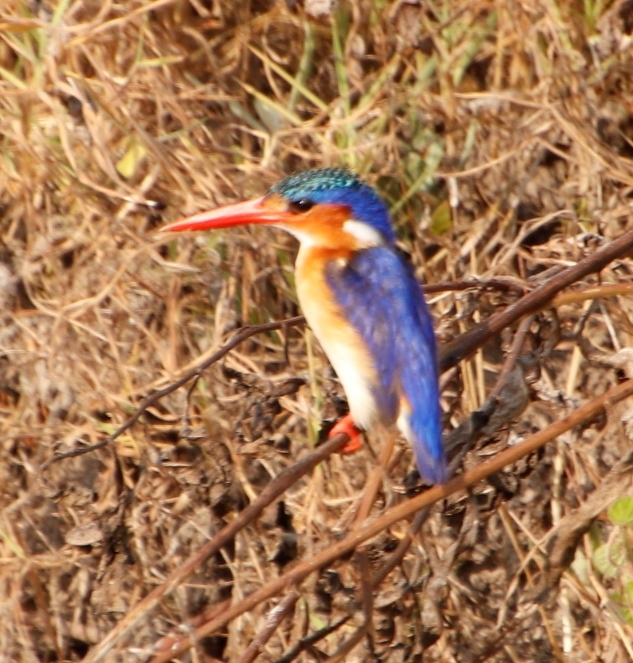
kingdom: Animalia
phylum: Chordata
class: Aves
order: Coraciiformes
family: Alcedinidae
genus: Corythornis
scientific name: Corythornis cristatus
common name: Malachite kingfisher
